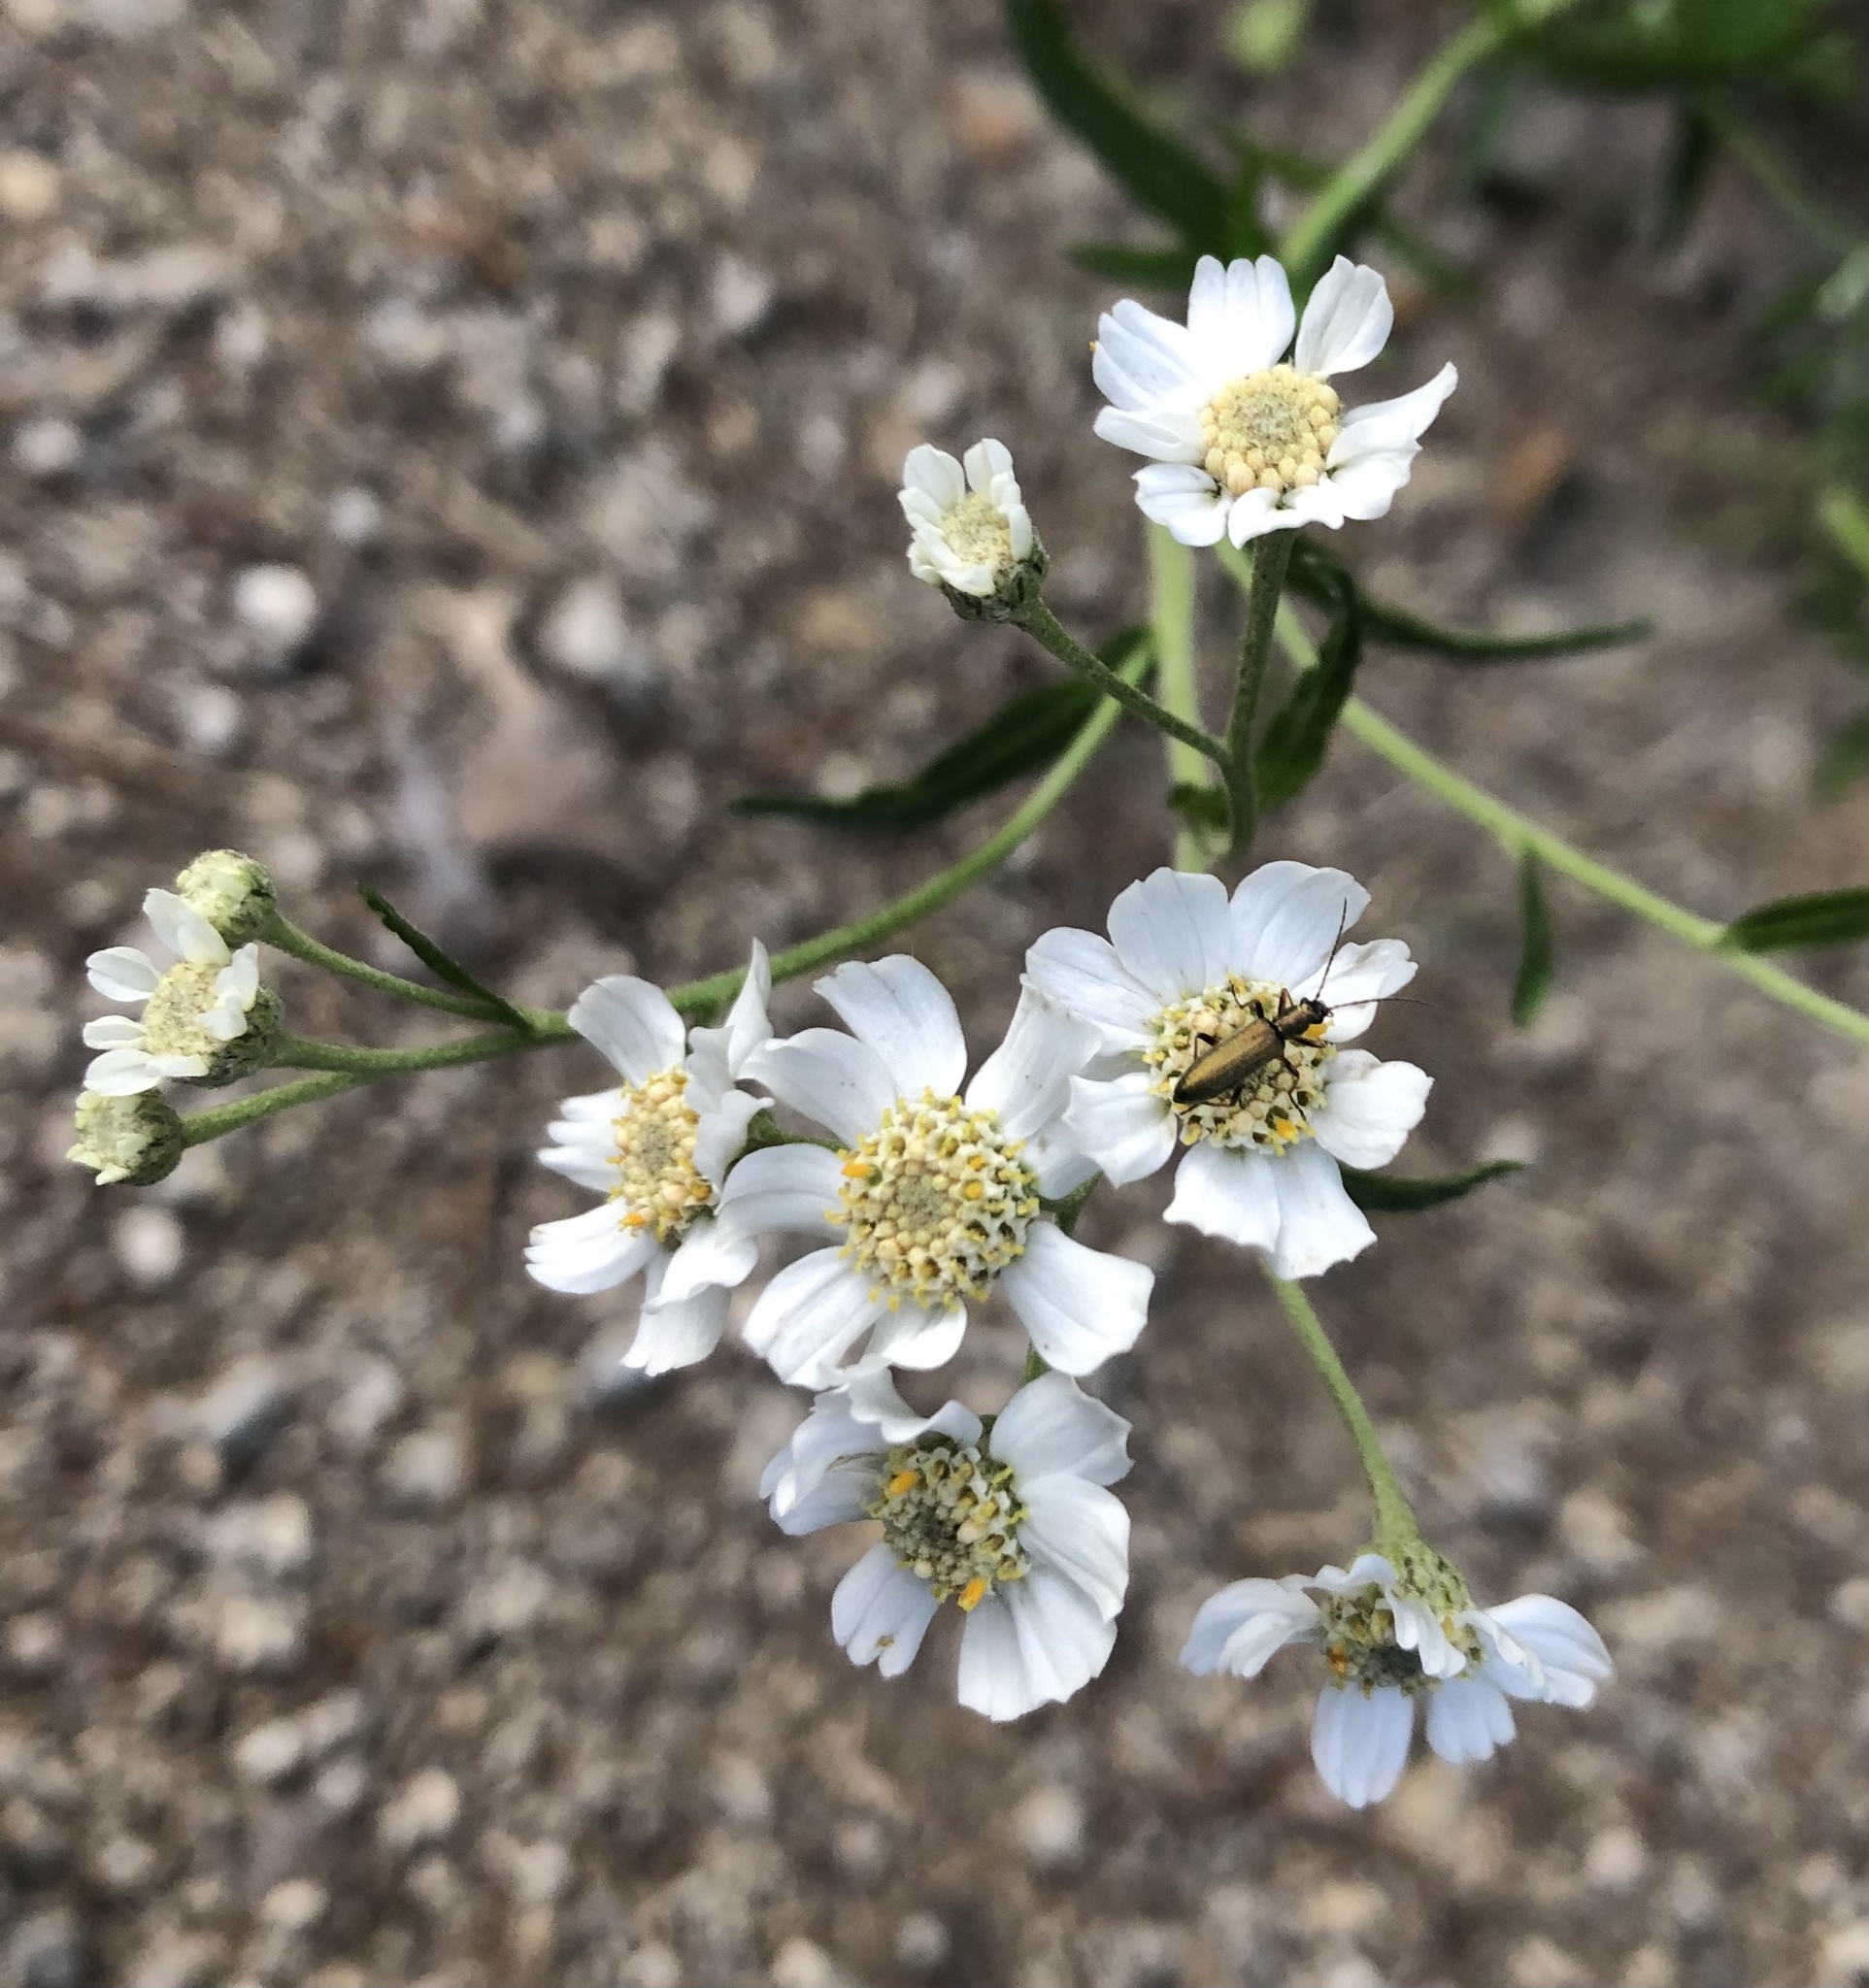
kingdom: Plantae
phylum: Tracheophyta
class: Magnoliopsida
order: Asterales
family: Asteraceae
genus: Achillea
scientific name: Achillea ptarmica
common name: Sneezeweed
